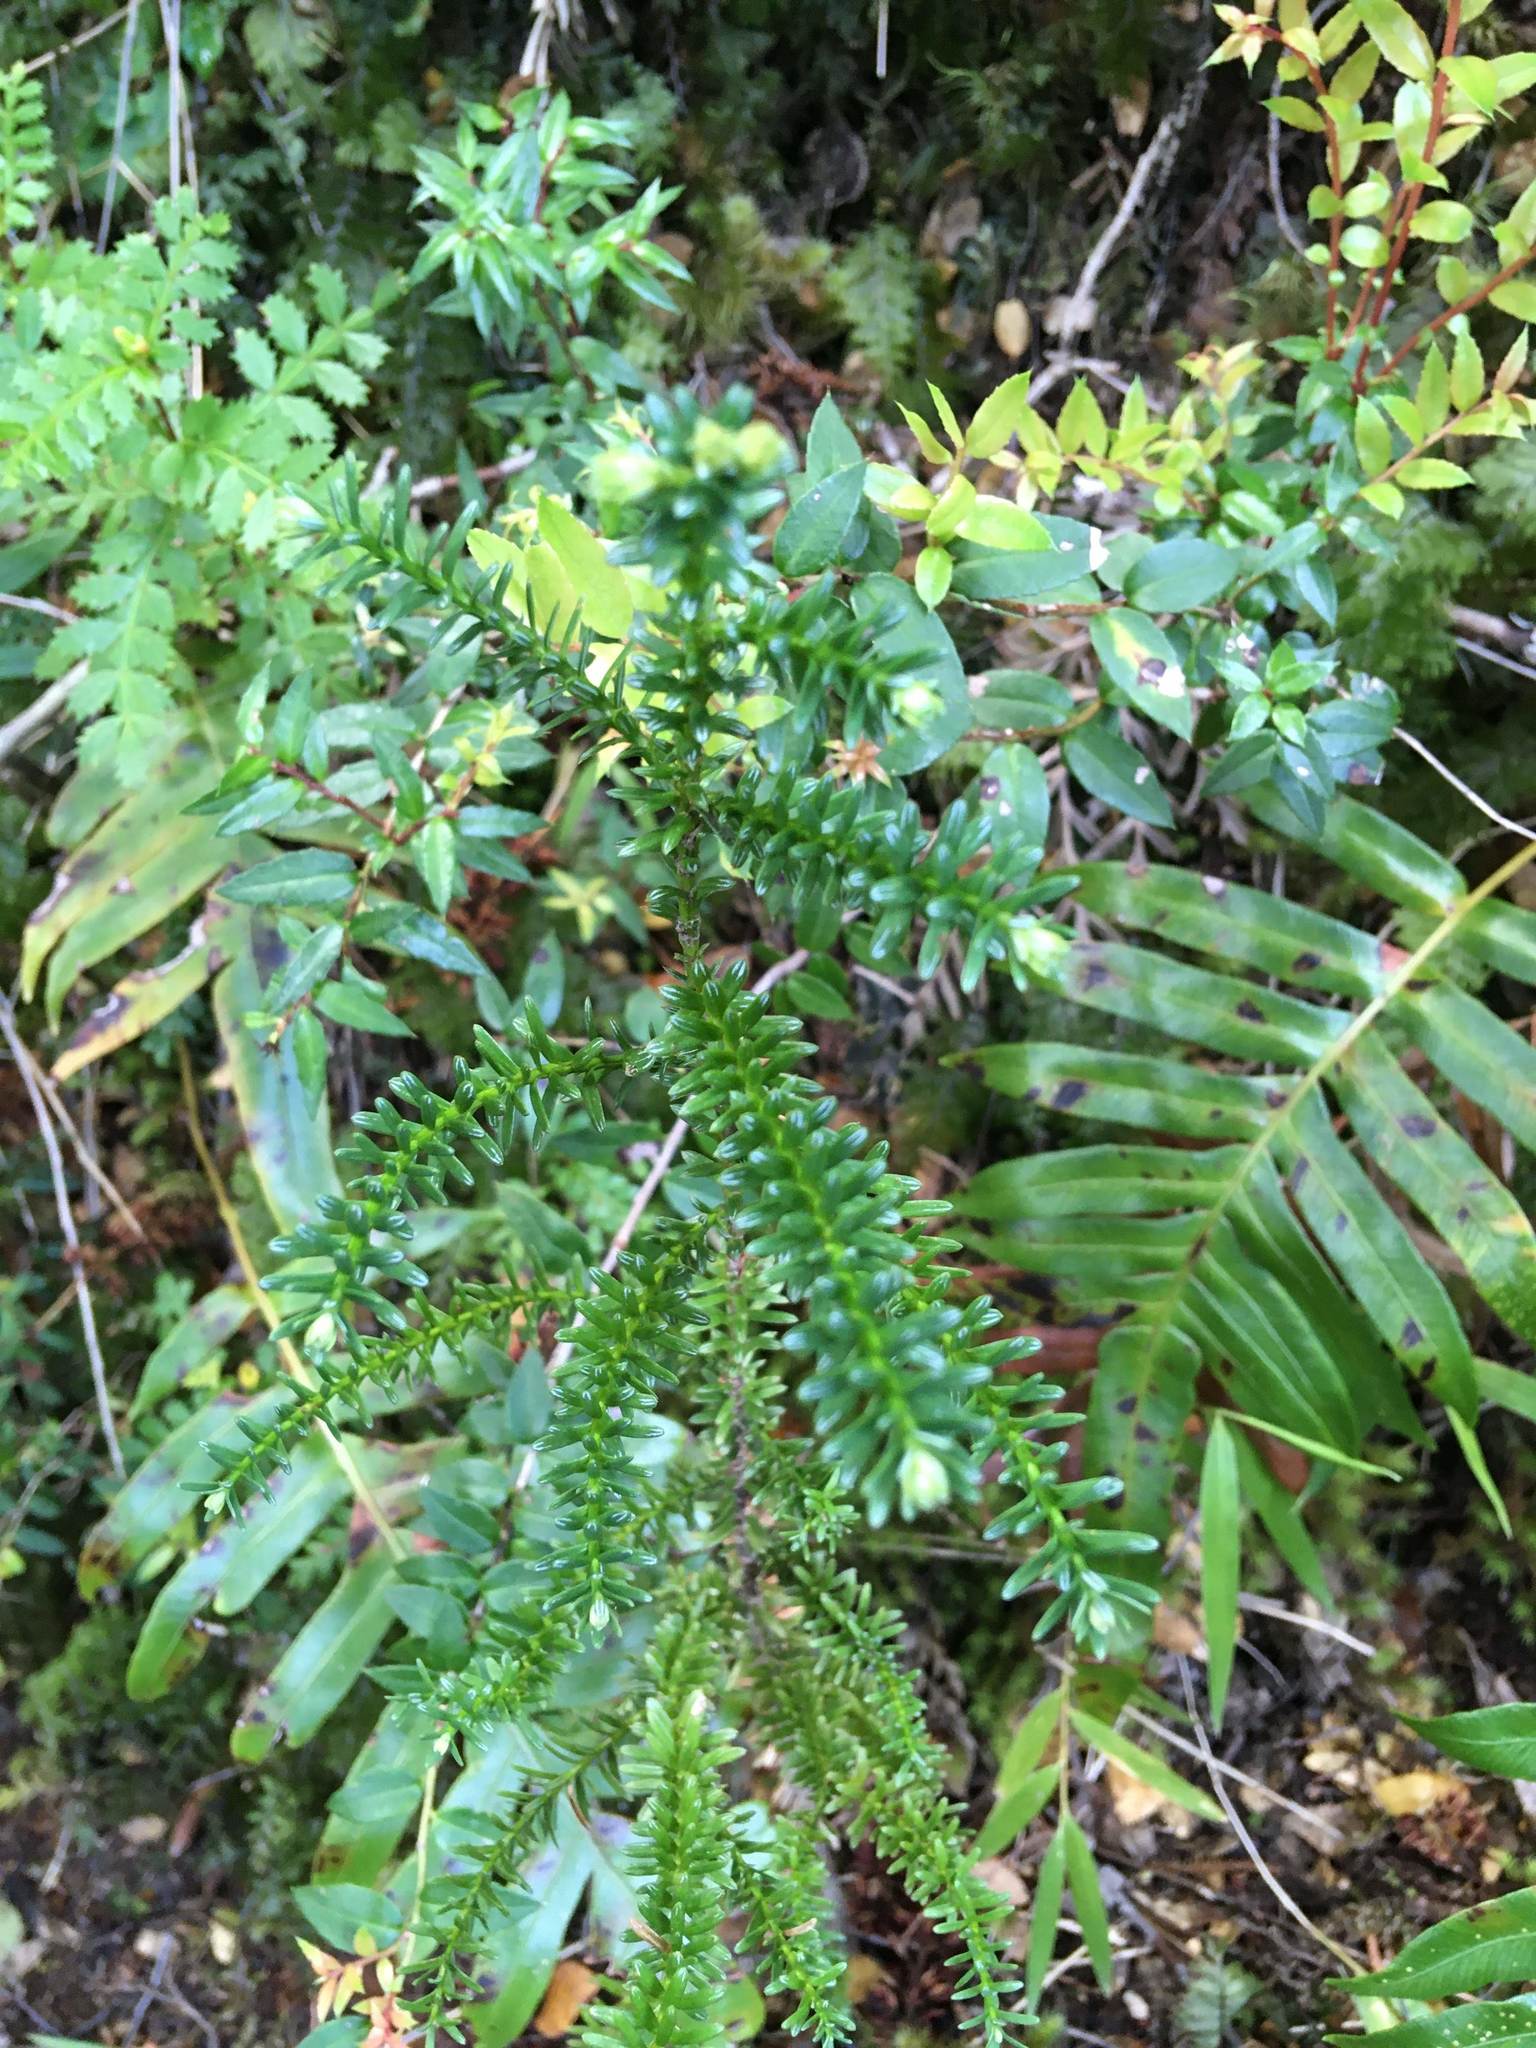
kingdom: Plantae
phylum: Tracheophyta
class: Pinopsida
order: Pinales
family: Cupressaceae
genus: Fitzroya
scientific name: Fitzroya cupressoides
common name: Patagonian cypress
